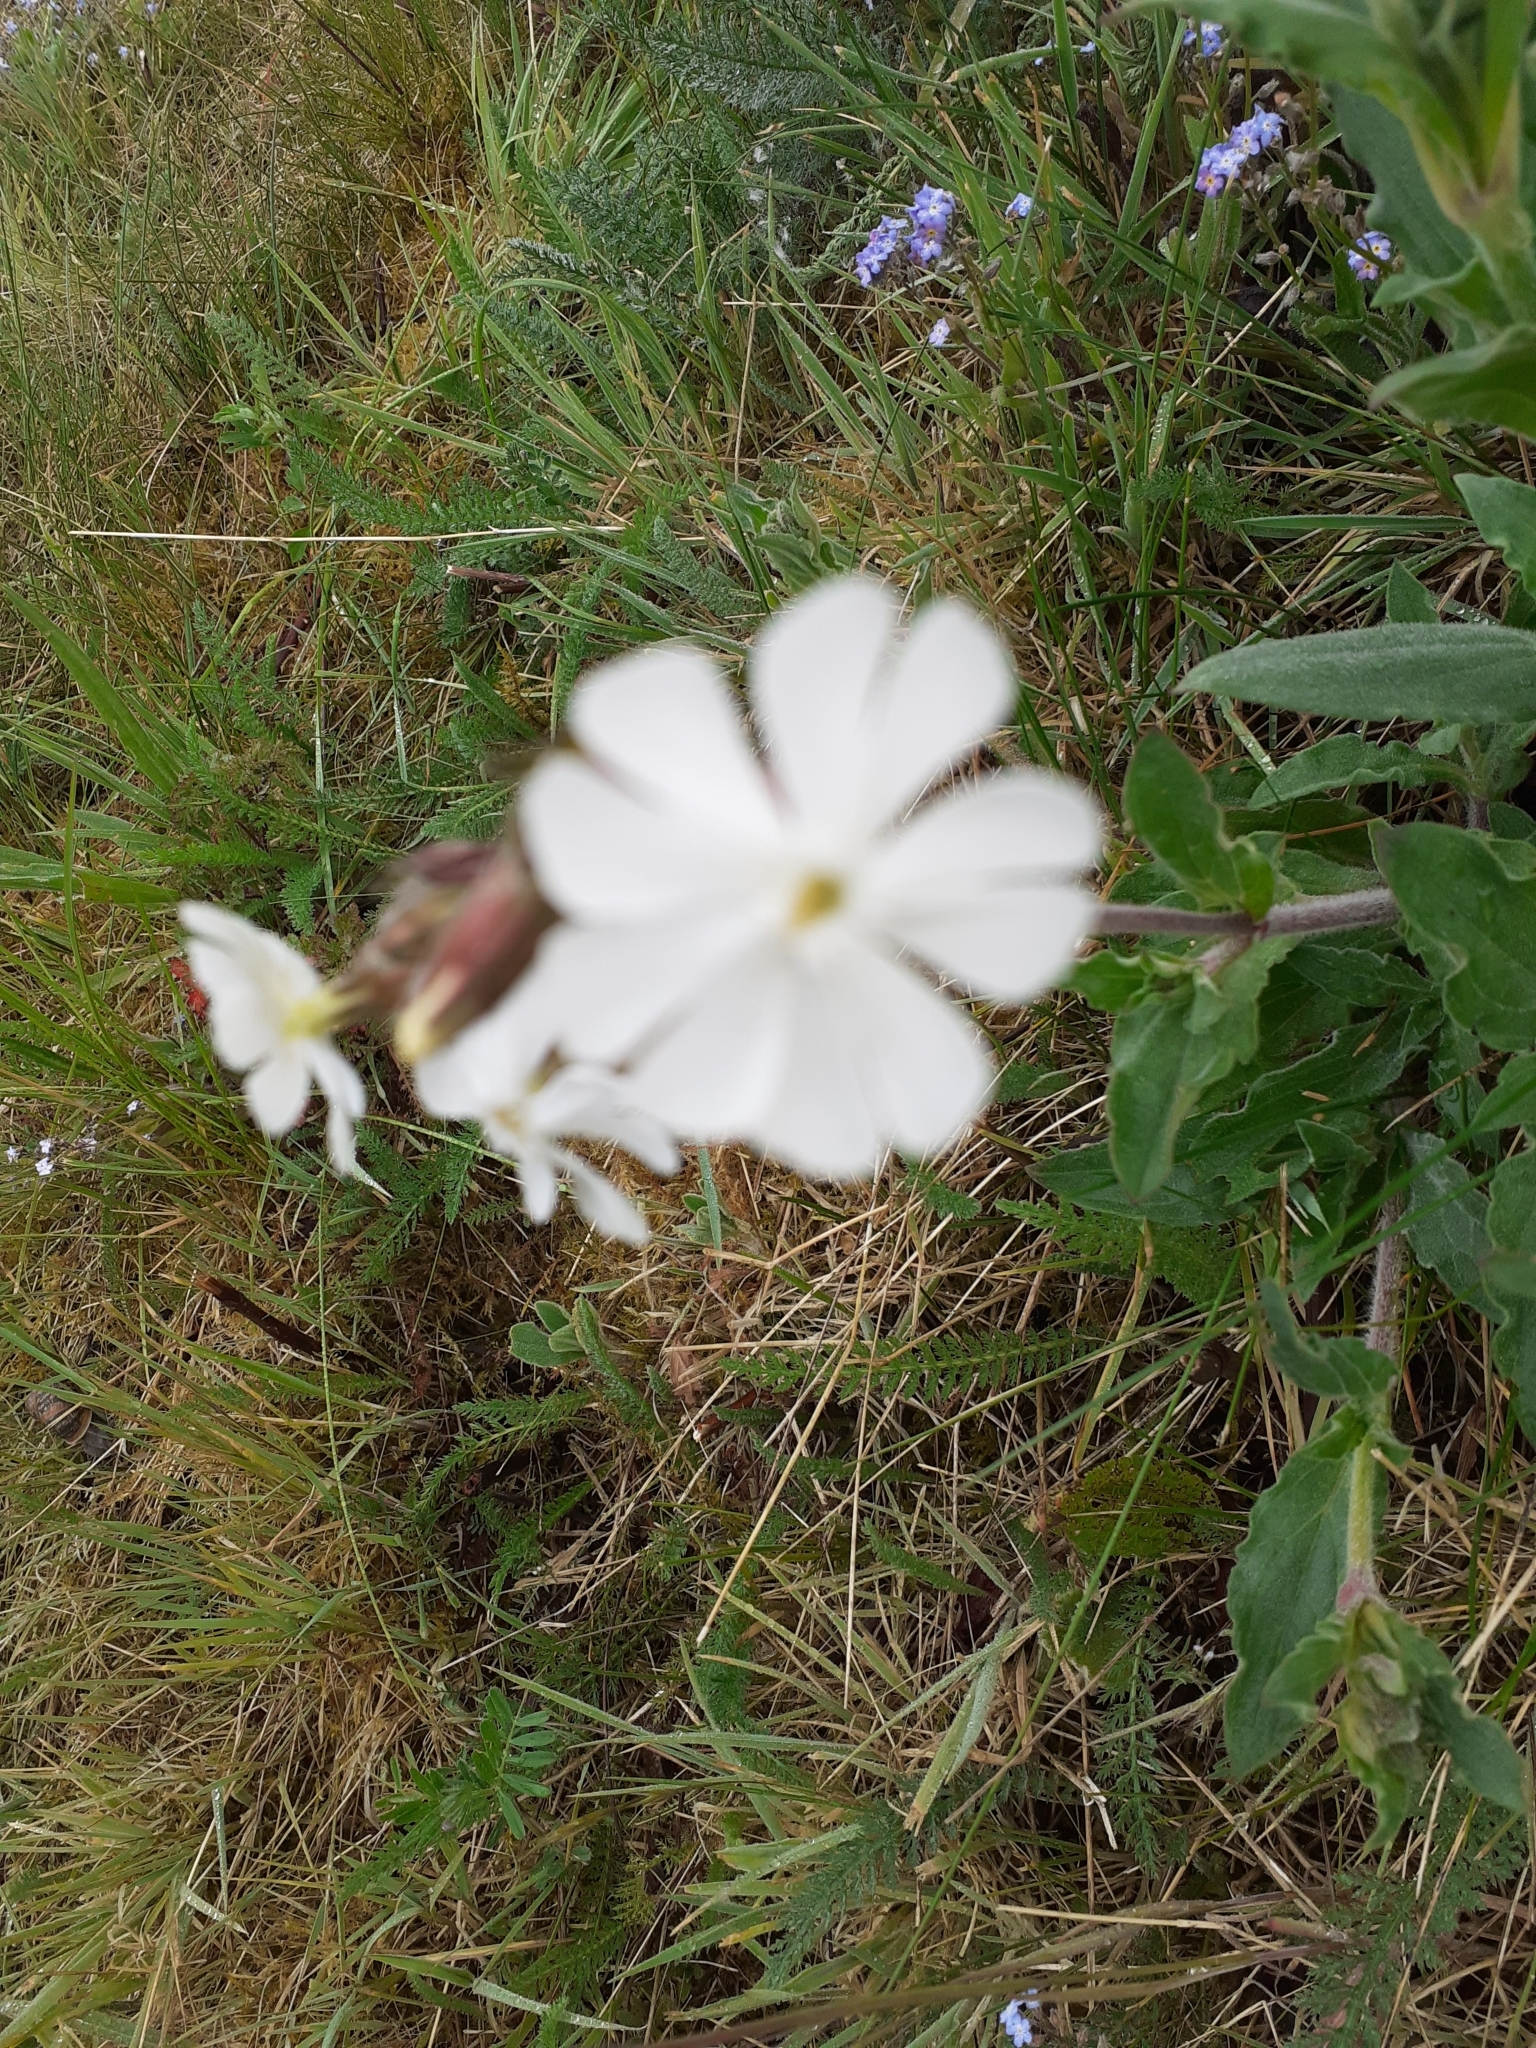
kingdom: Plantae
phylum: Tracheophyta
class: Magnoliopsida
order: Caryophyllales
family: Caryophyllaceae
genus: Silene
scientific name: Silene latifolia
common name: White campion
